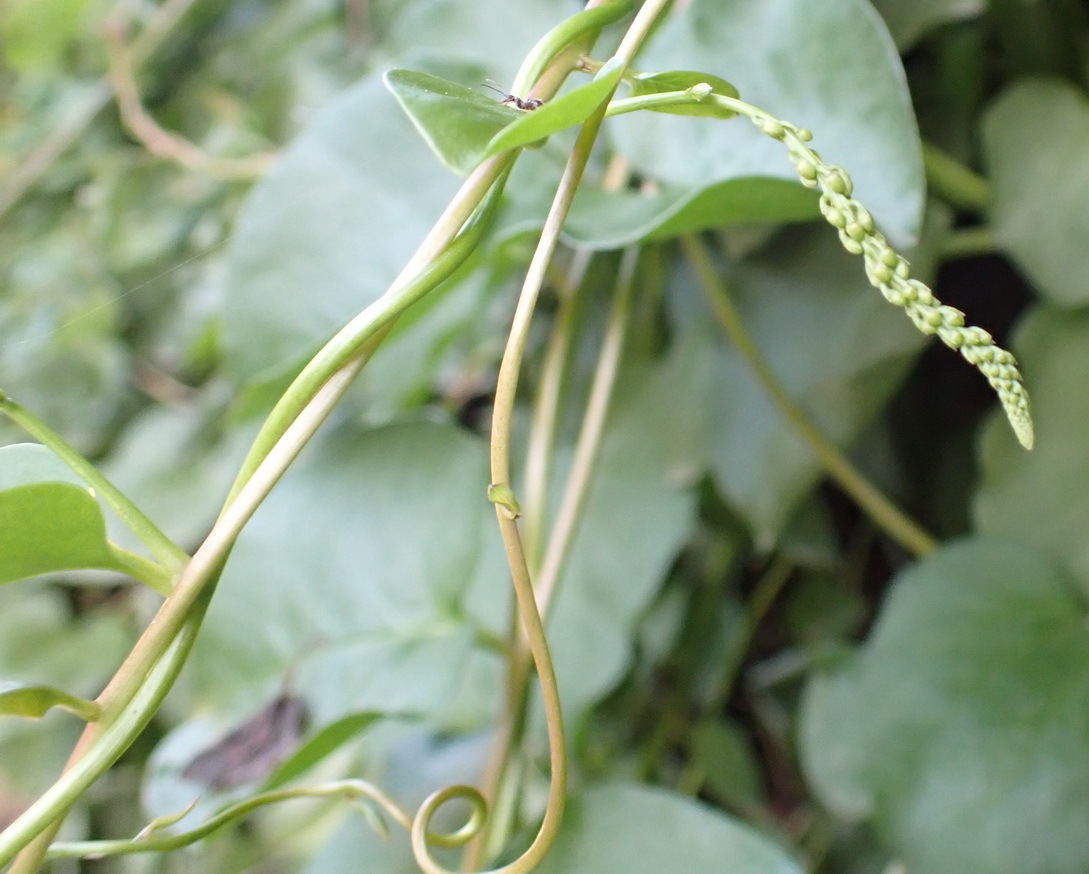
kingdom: Plantae
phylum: Tracheophyta
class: Magnoliopsida
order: Caryophyllales
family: Basellaceae
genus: Anredera
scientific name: Anredera cordifolia
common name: Heartleaf madeiravine
